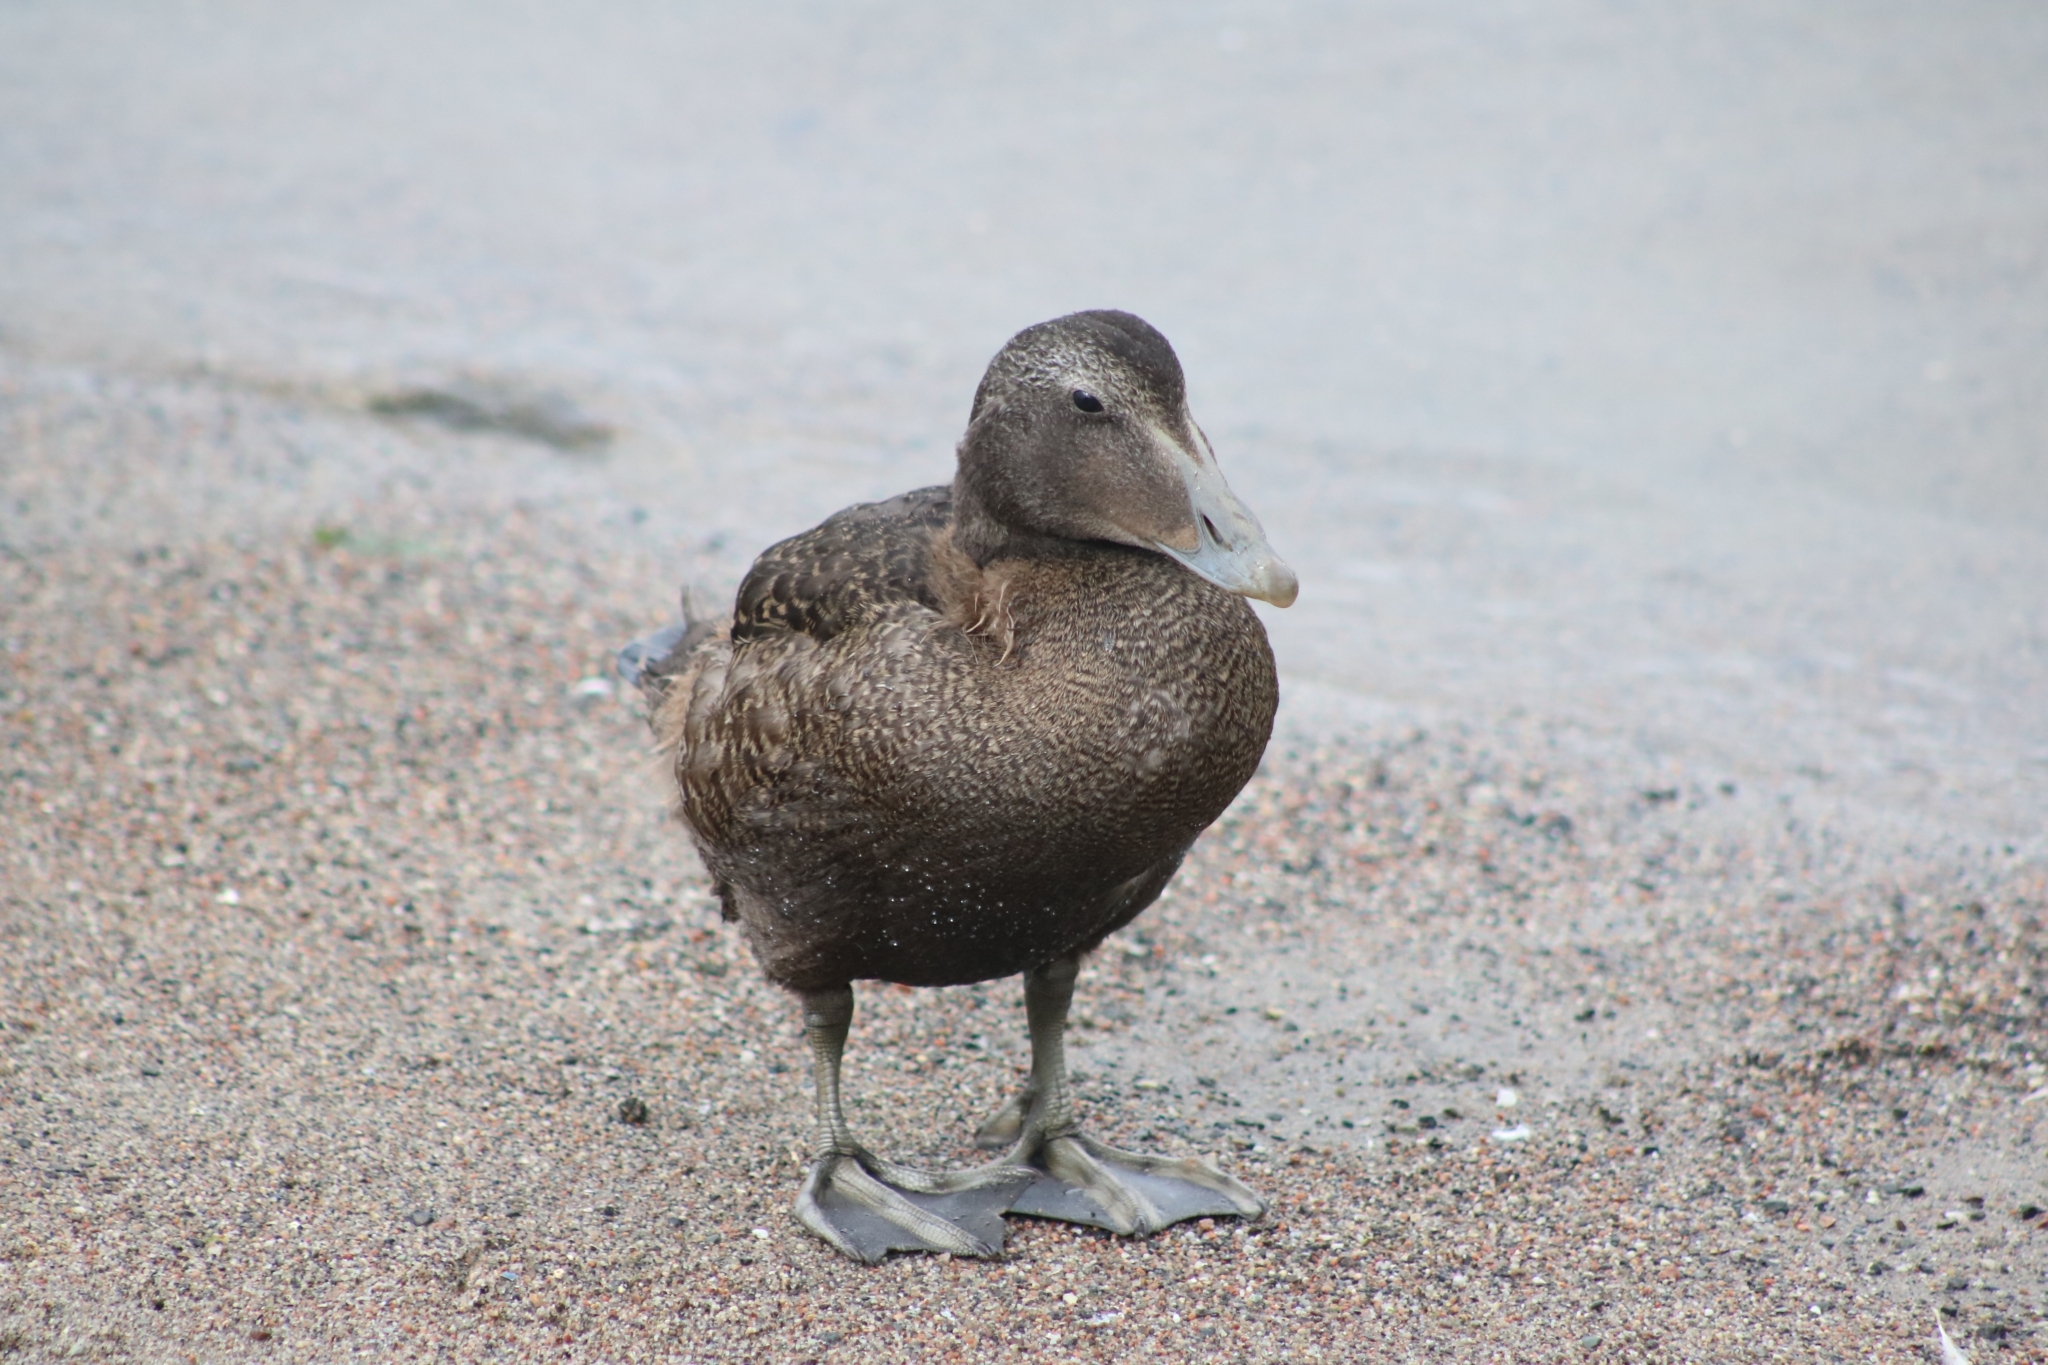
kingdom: Animalia
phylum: Chordata
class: Aves
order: Anseriformes
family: Anatidae
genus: Somateria
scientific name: Somateria mollissima
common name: Common eider
